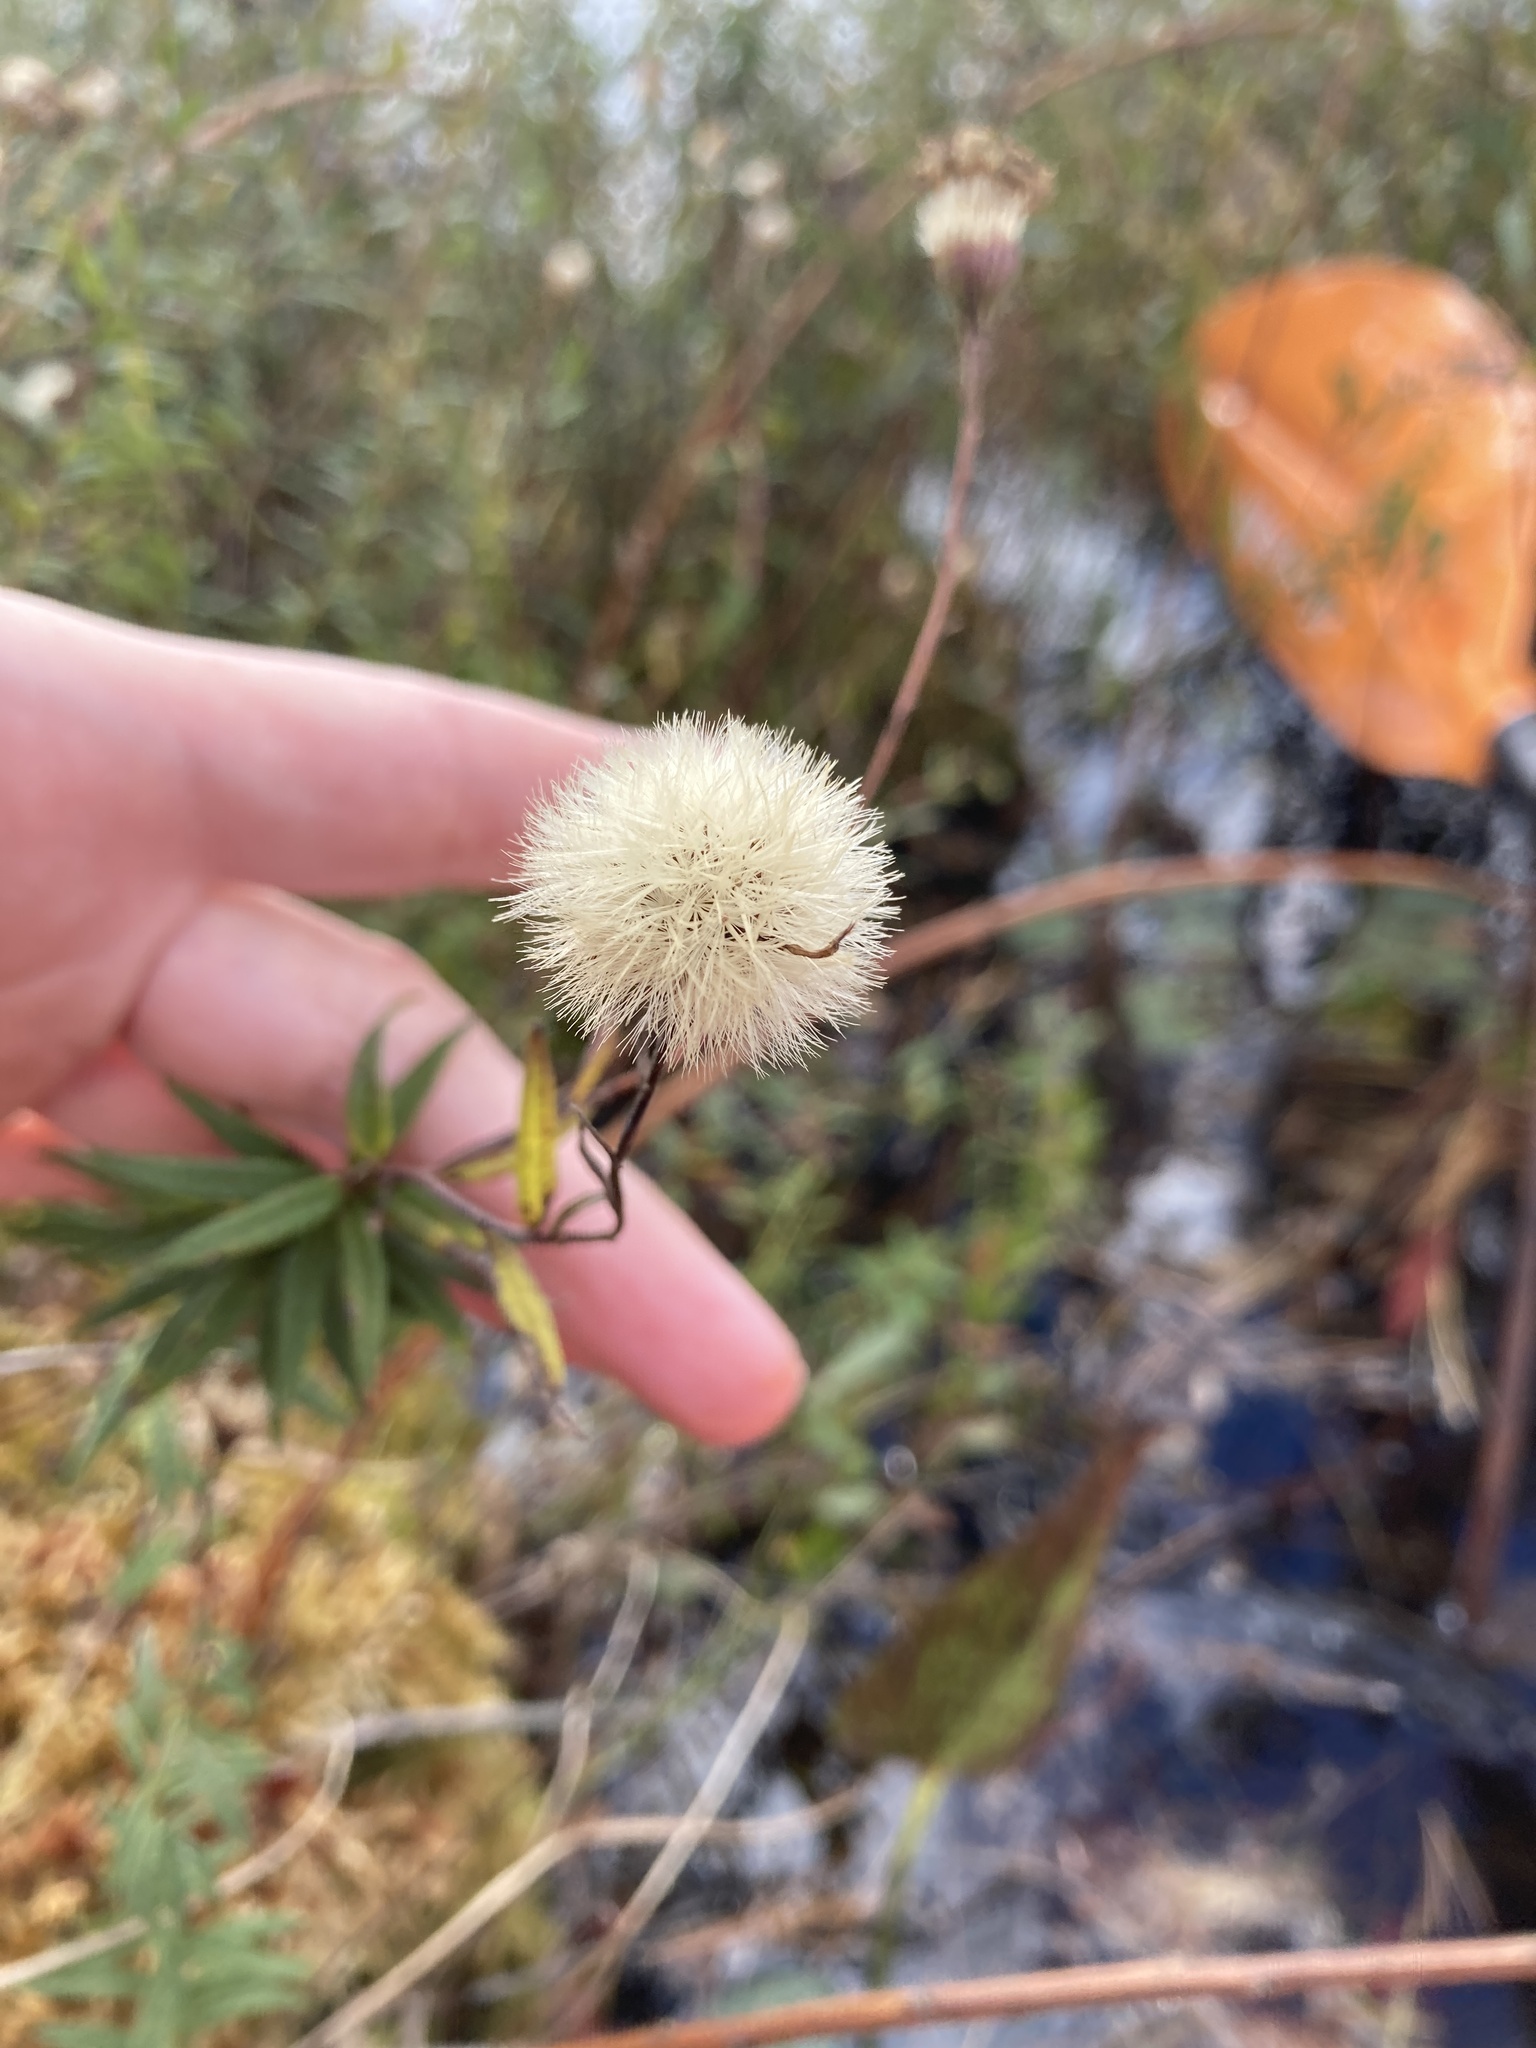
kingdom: Plantae
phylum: Tracheophyta
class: Magnoliopsida
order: Asterales
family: Asteraceae
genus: Oclemena
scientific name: Oclemena nemoralis
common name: Bog aster
